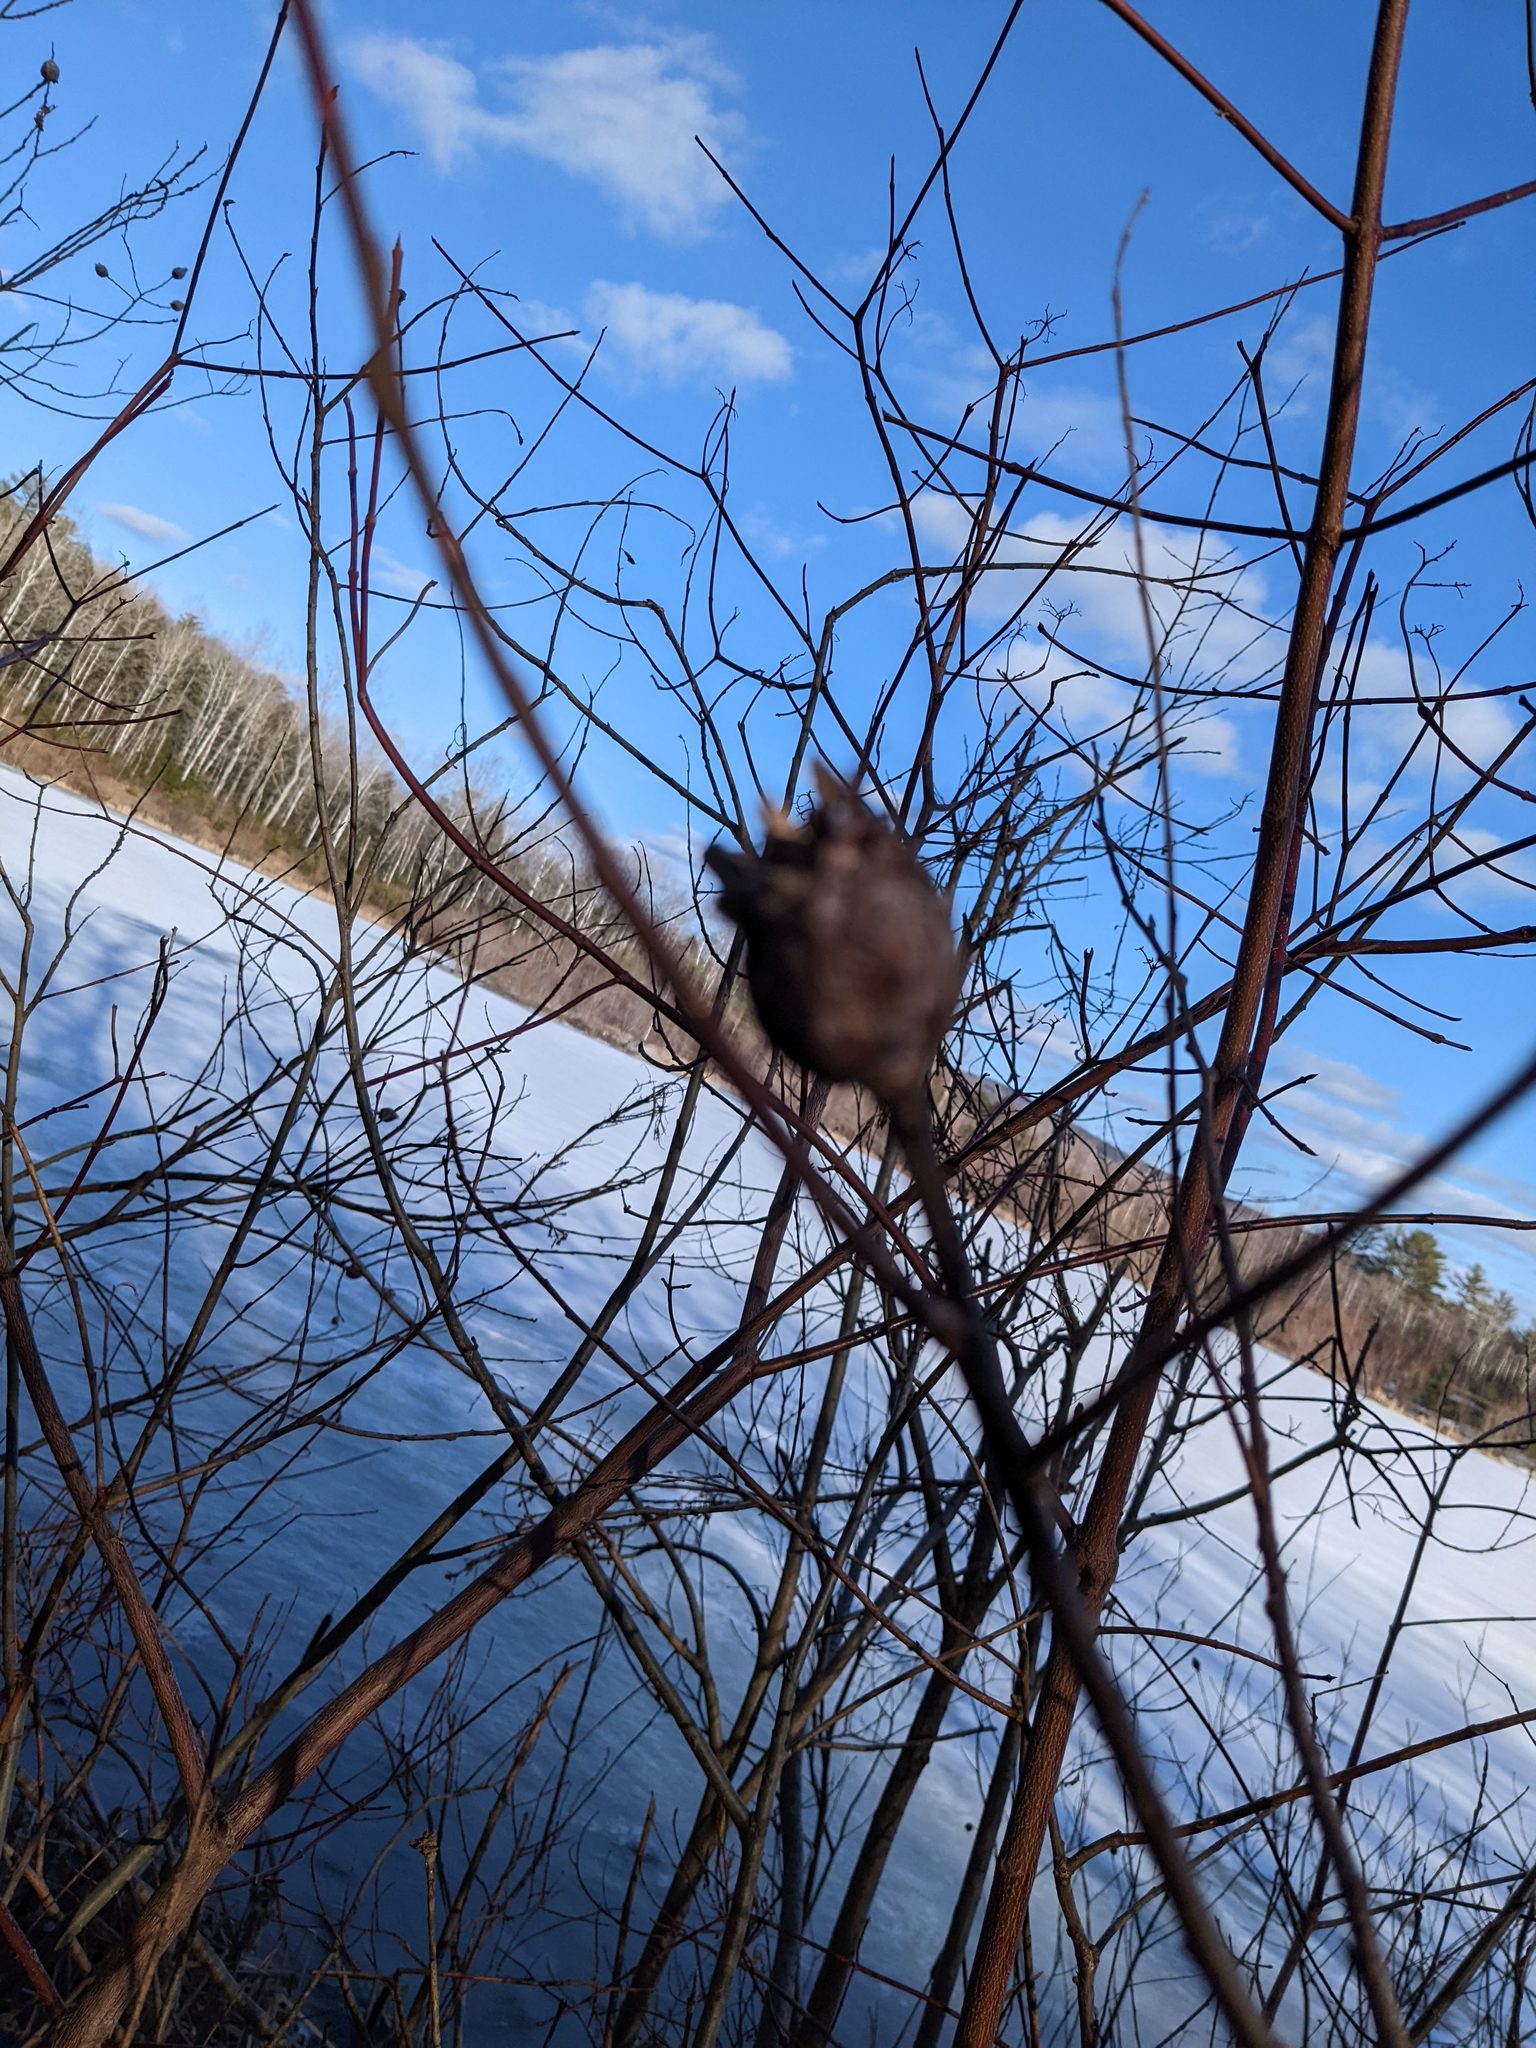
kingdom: Animalia
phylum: Arthropoda
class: Insecta
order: Diptera
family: Cecidomyiidae
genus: Rabdophaga
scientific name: Rabdophaga strobiloides
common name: Willow pinecone gall midge
